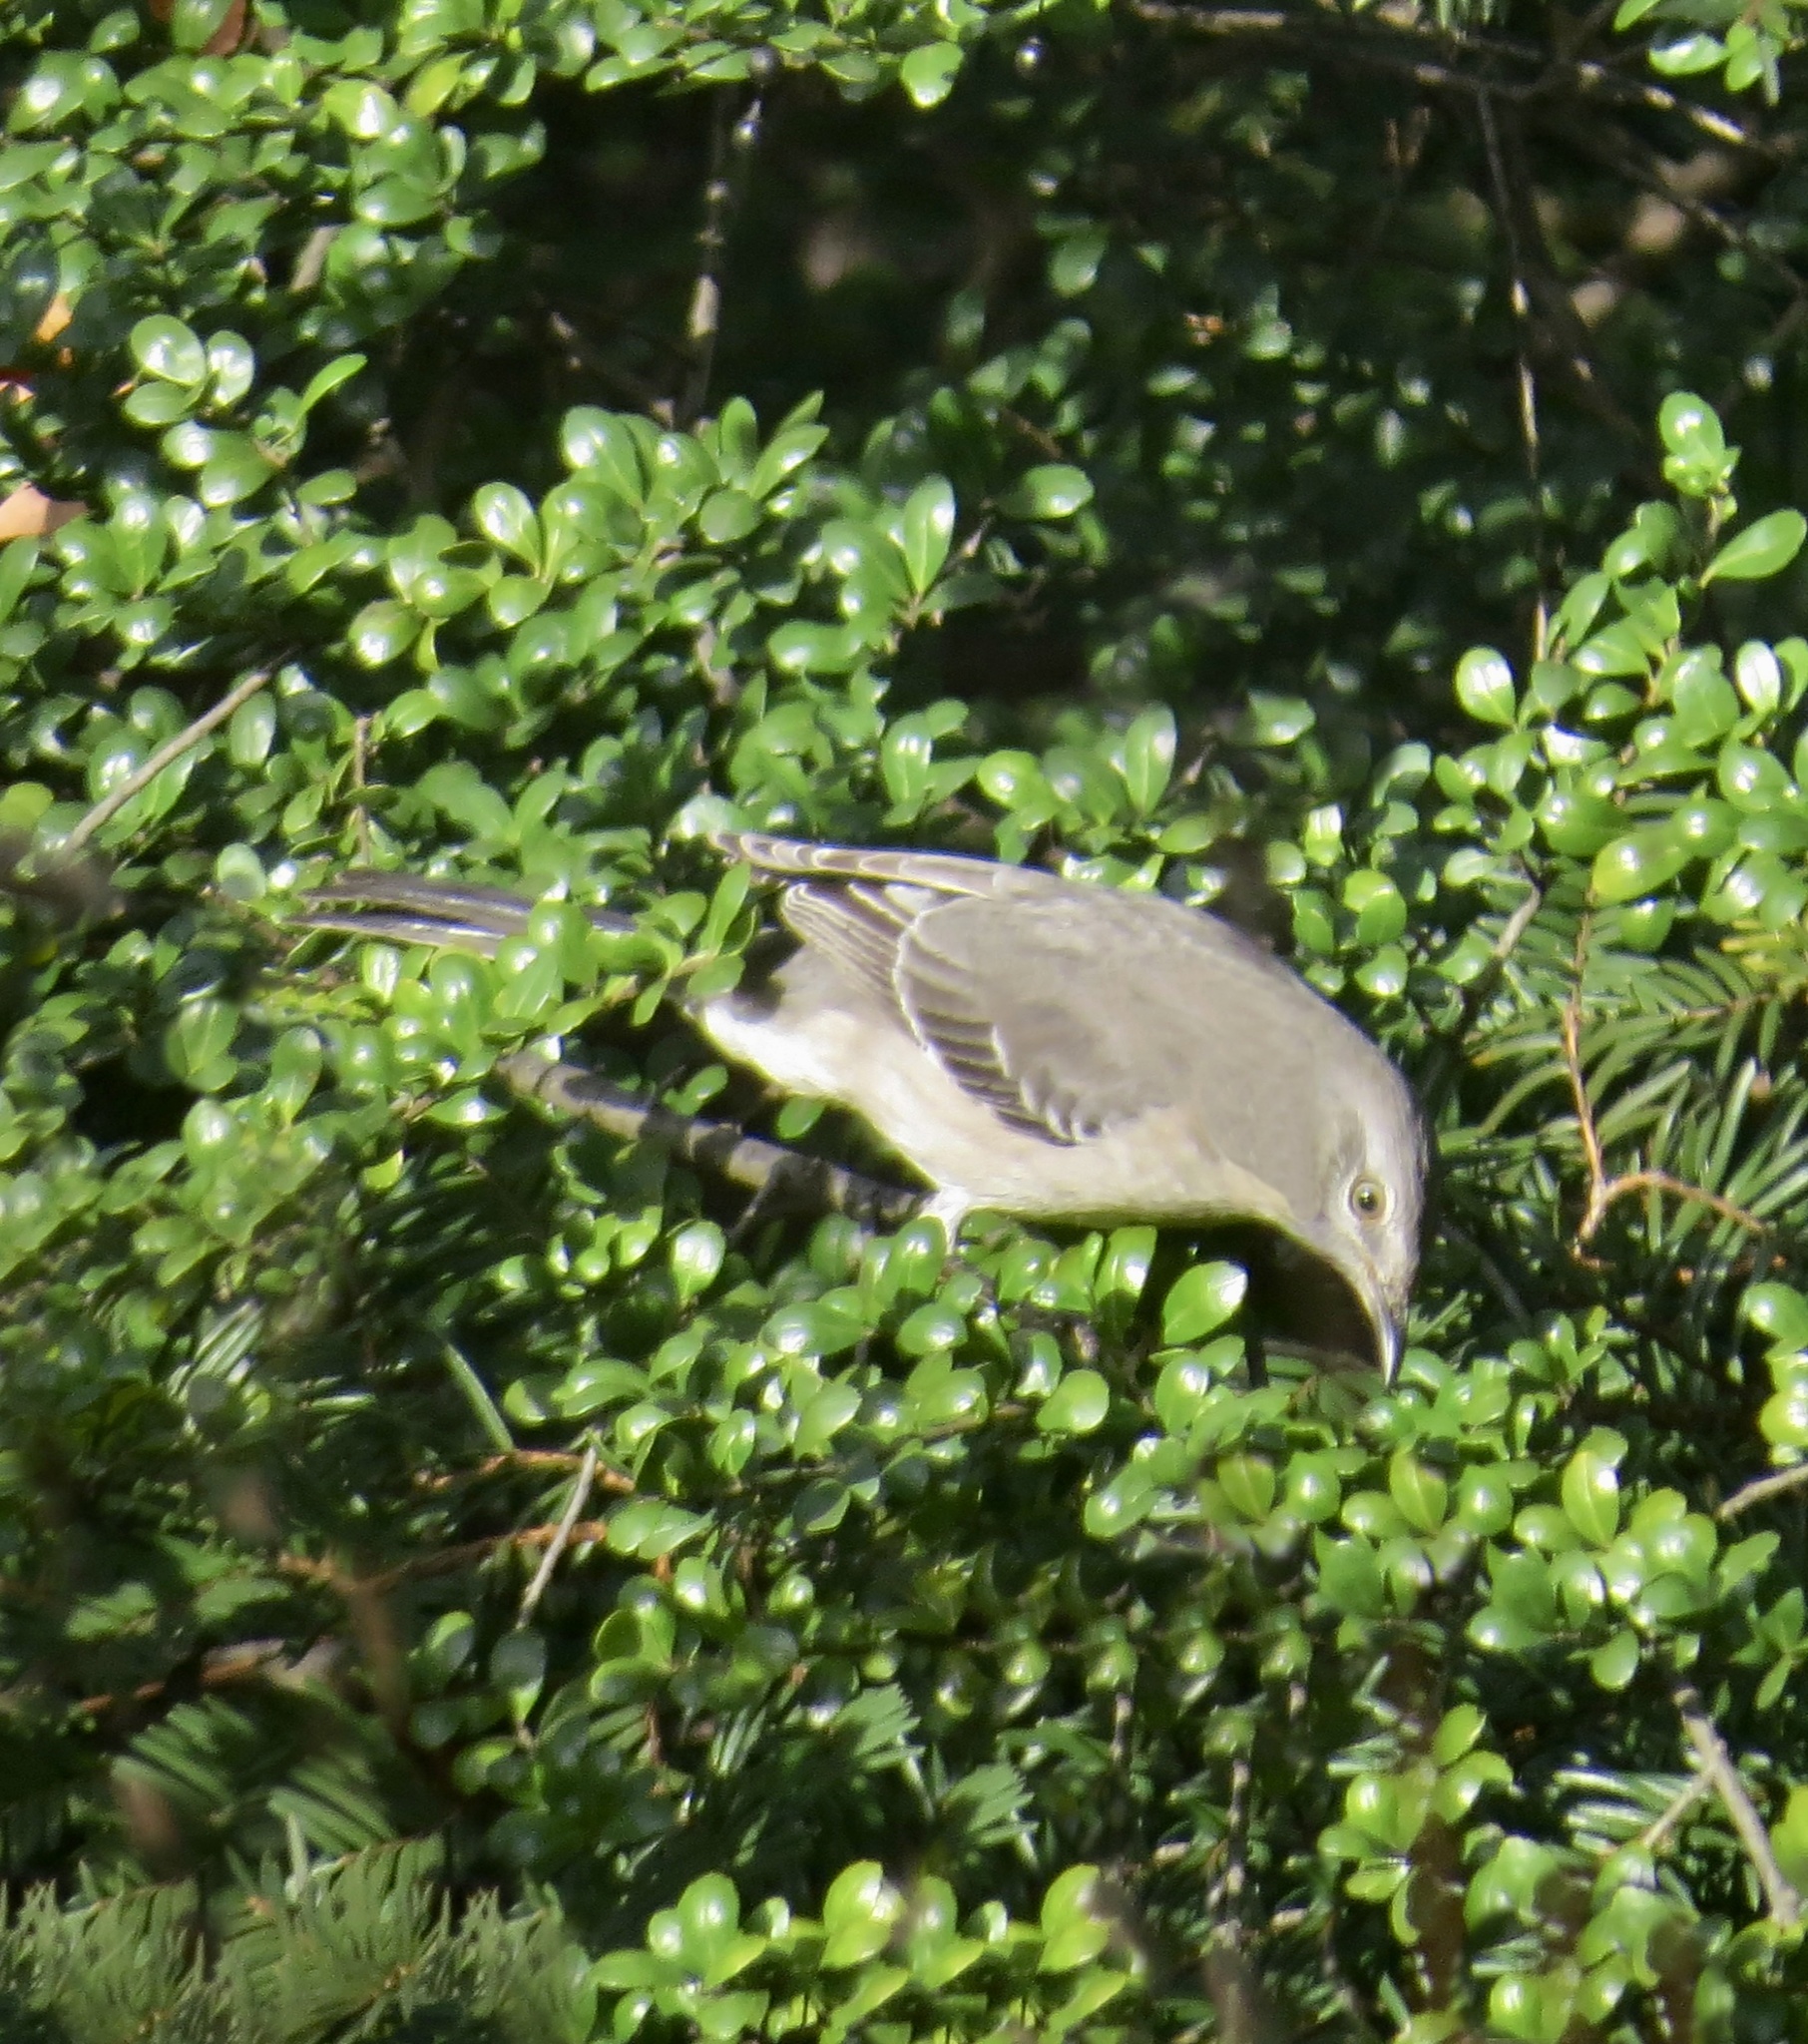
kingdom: Animalia
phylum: Chordata
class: Aves
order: Passeriformes
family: Mimidae
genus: Mimus
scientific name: Mimus polyglottos
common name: Northern mockingbird
